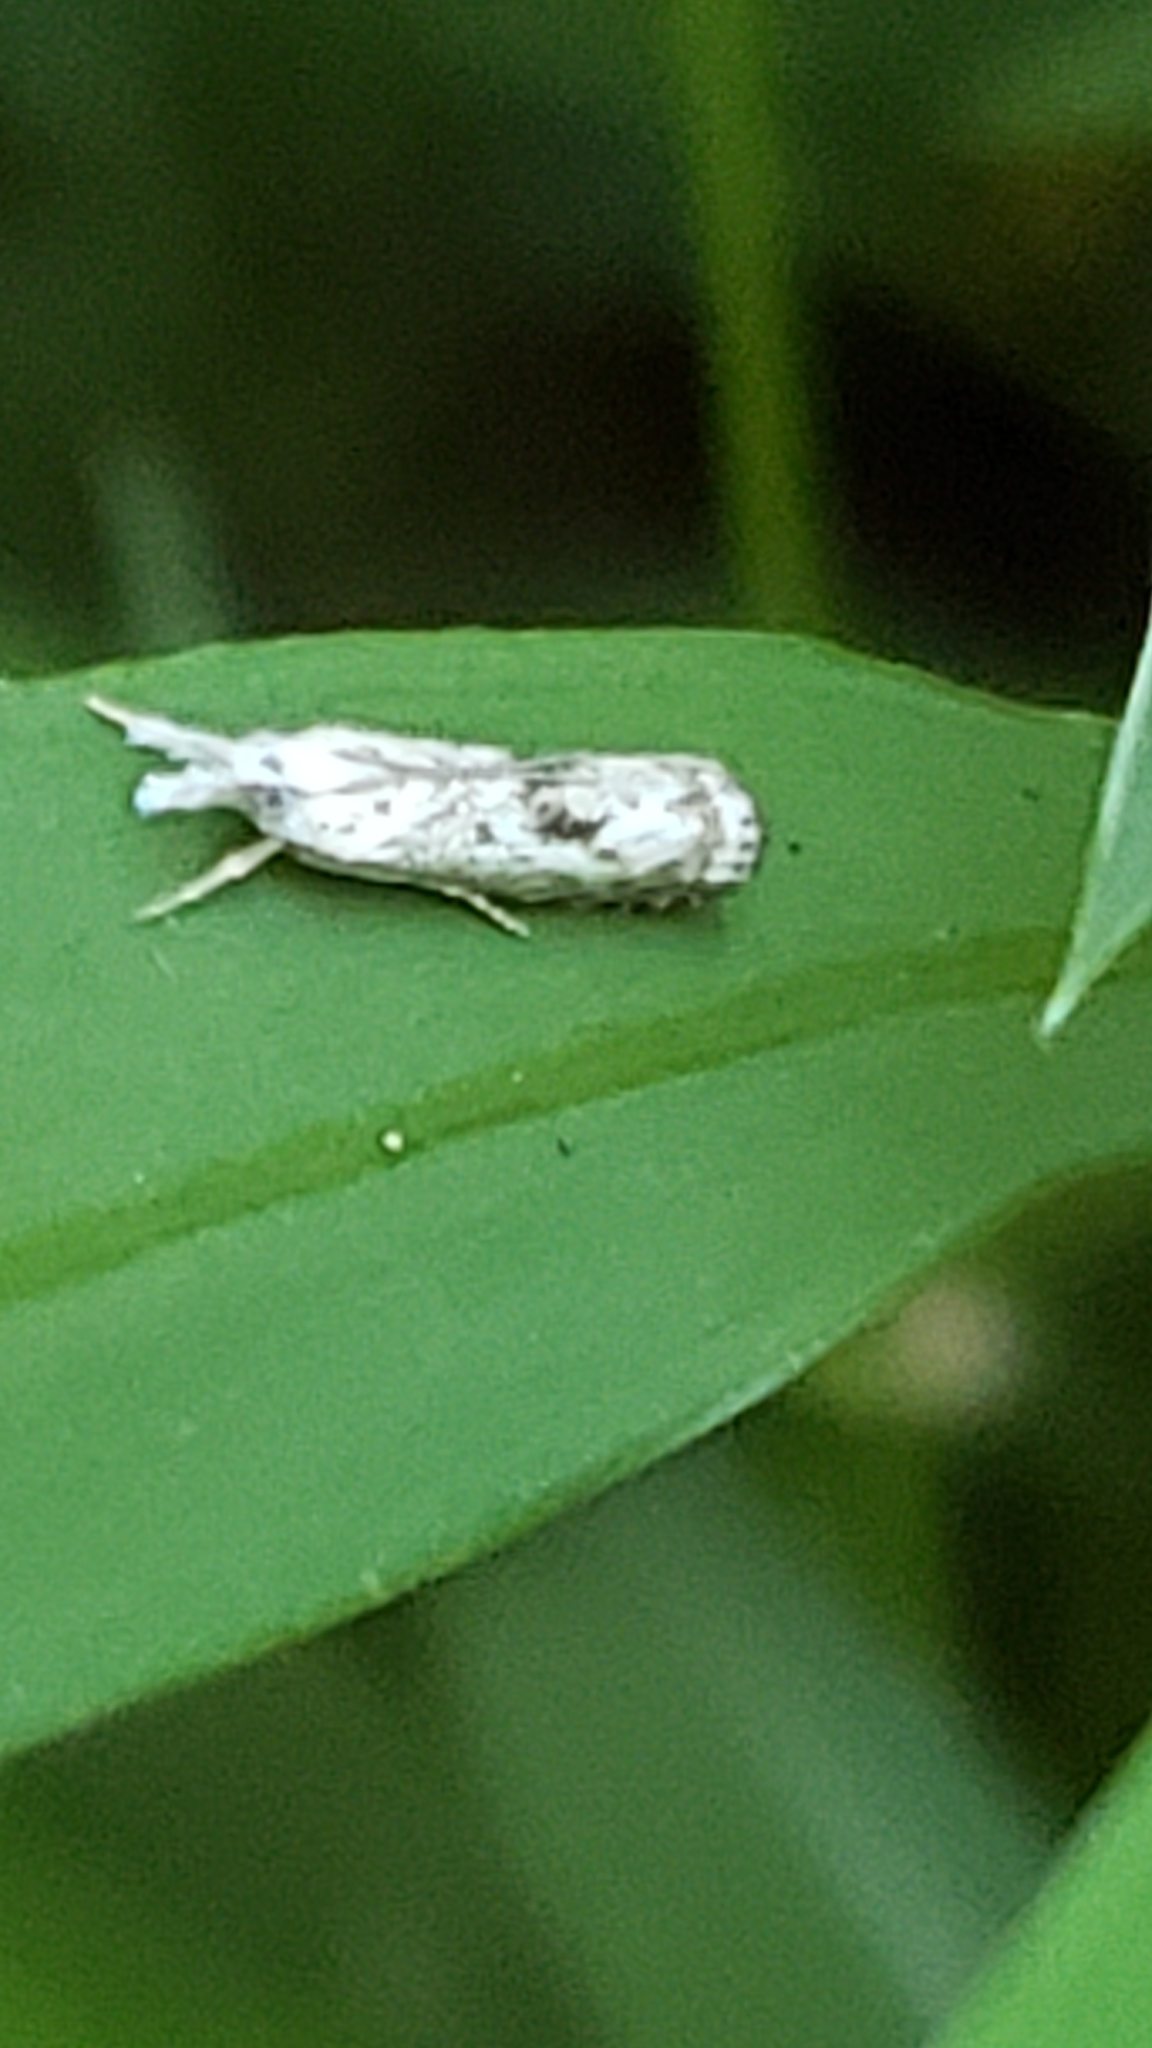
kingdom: Animalia
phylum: Arthropoda
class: Insecta
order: Lepidoptera
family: Crambidae
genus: Microcrambus
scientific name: Microcrambus immunellus
